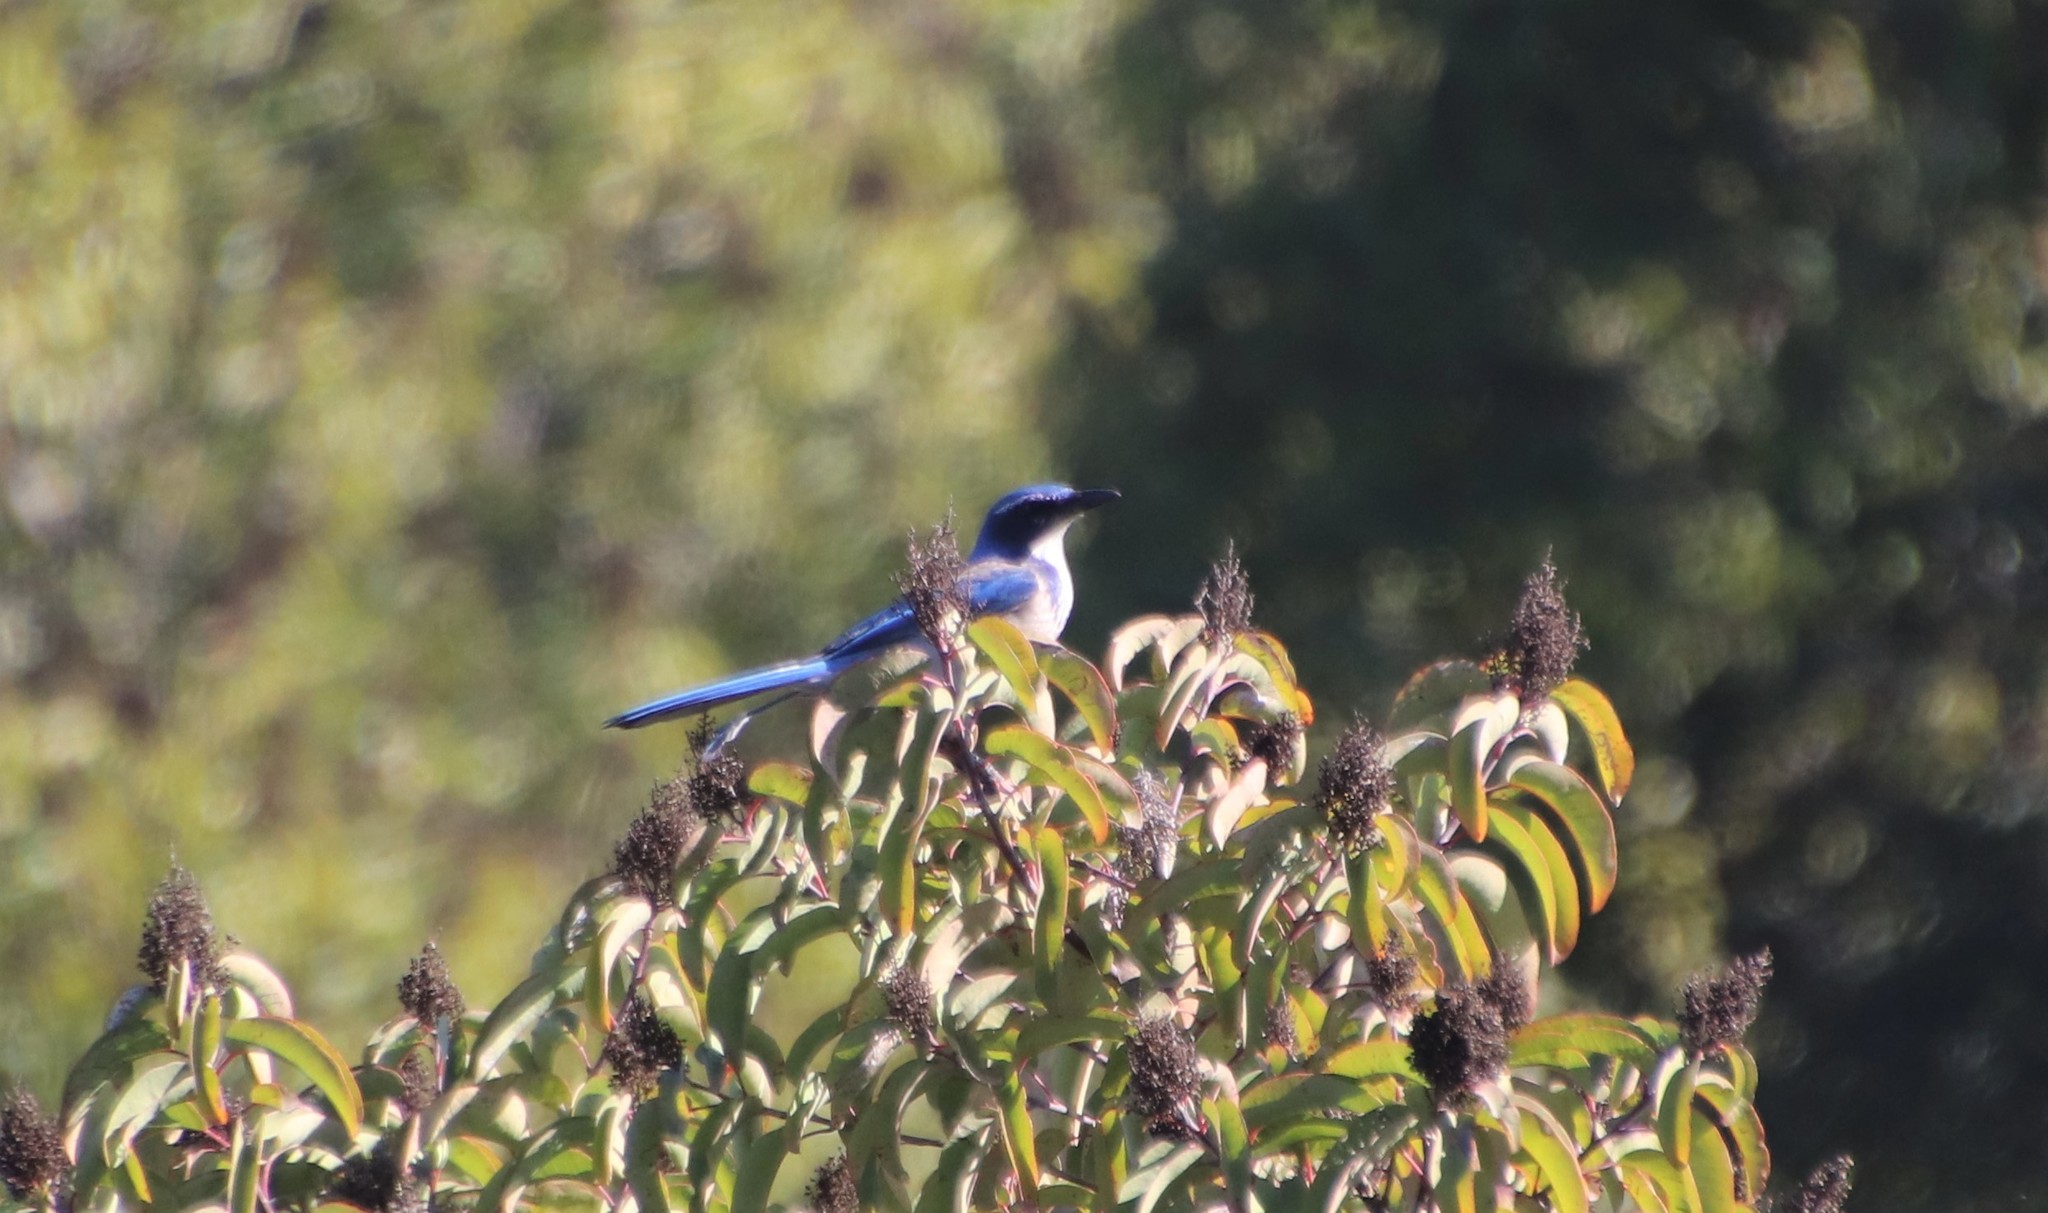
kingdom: Animalia
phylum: Chordata
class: Aves
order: Passeriformes
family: Corvidae
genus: Aphelocoma
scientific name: Aphelocoma californica
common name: California scrub-jay
